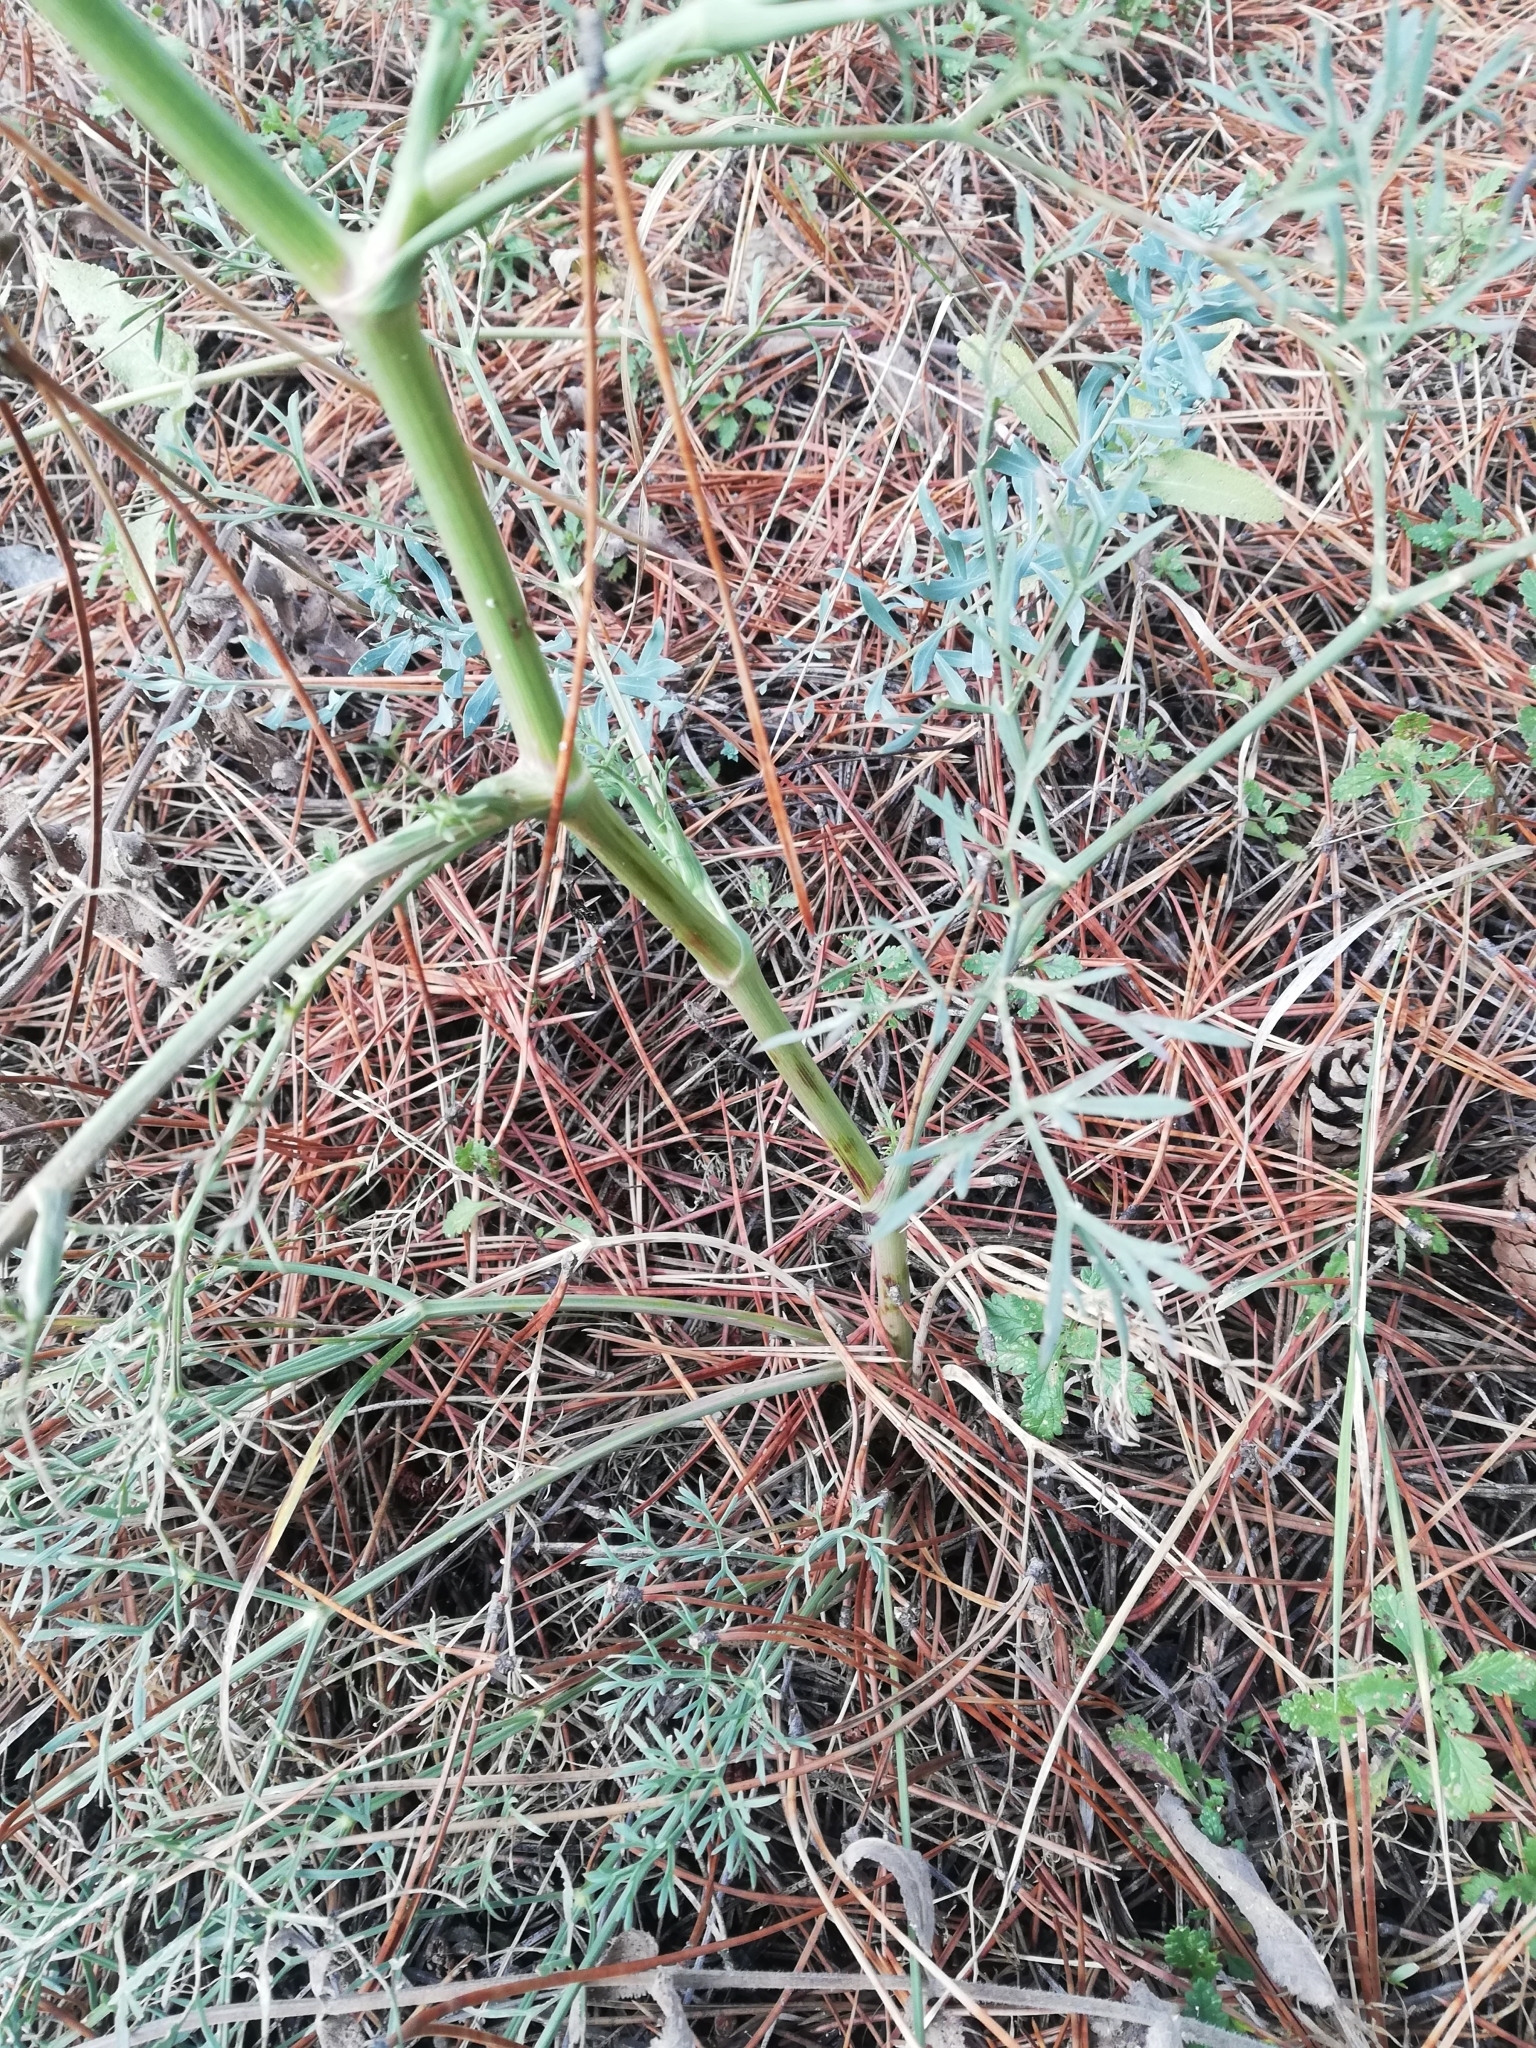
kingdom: Plantae
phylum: Tracheophyta
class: Magnoliopsida
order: Apiales
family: Apiaceae
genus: Seseli
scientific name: Seseli arenarium
